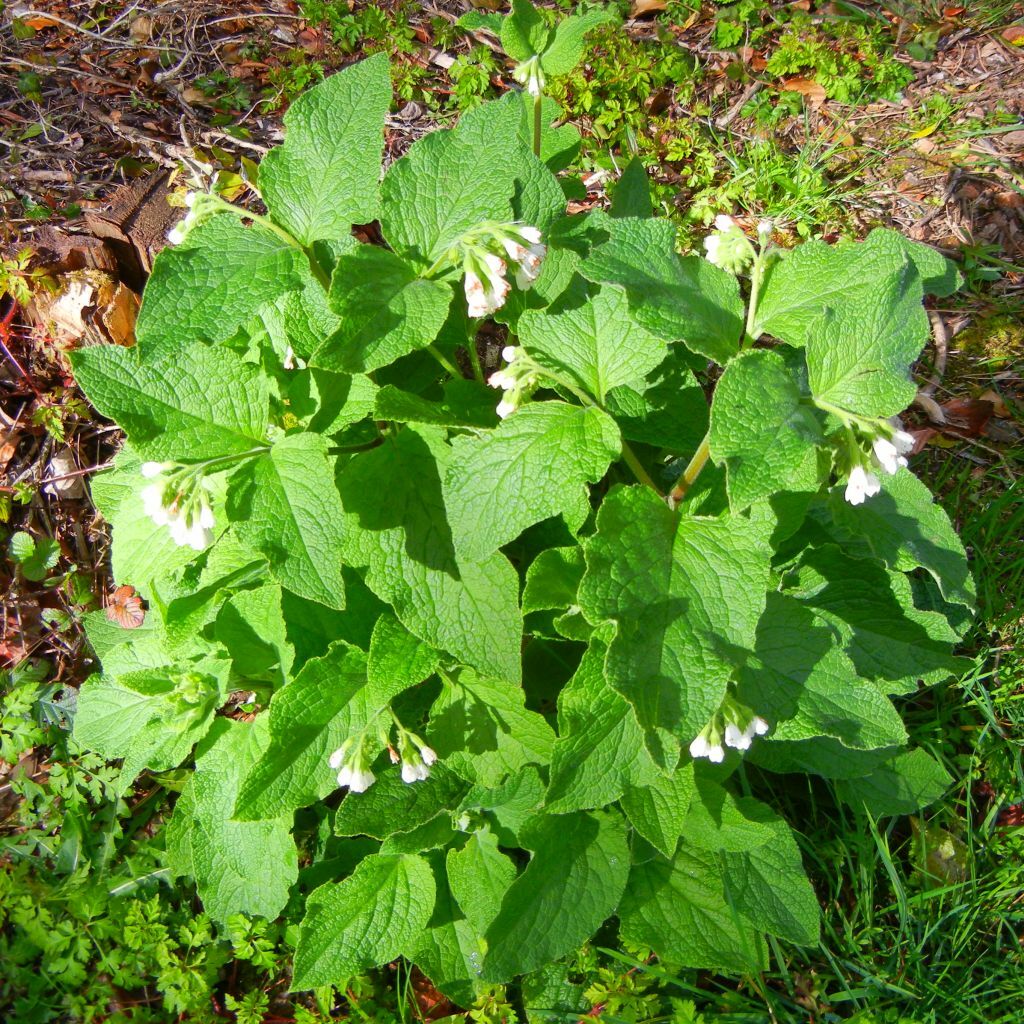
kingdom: Plantae
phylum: Tracheophyta
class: Magnoliopsida
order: Boraginales
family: Boraginaceae
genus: Symphytum
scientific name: Symphytum orientale
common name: White comfrey
